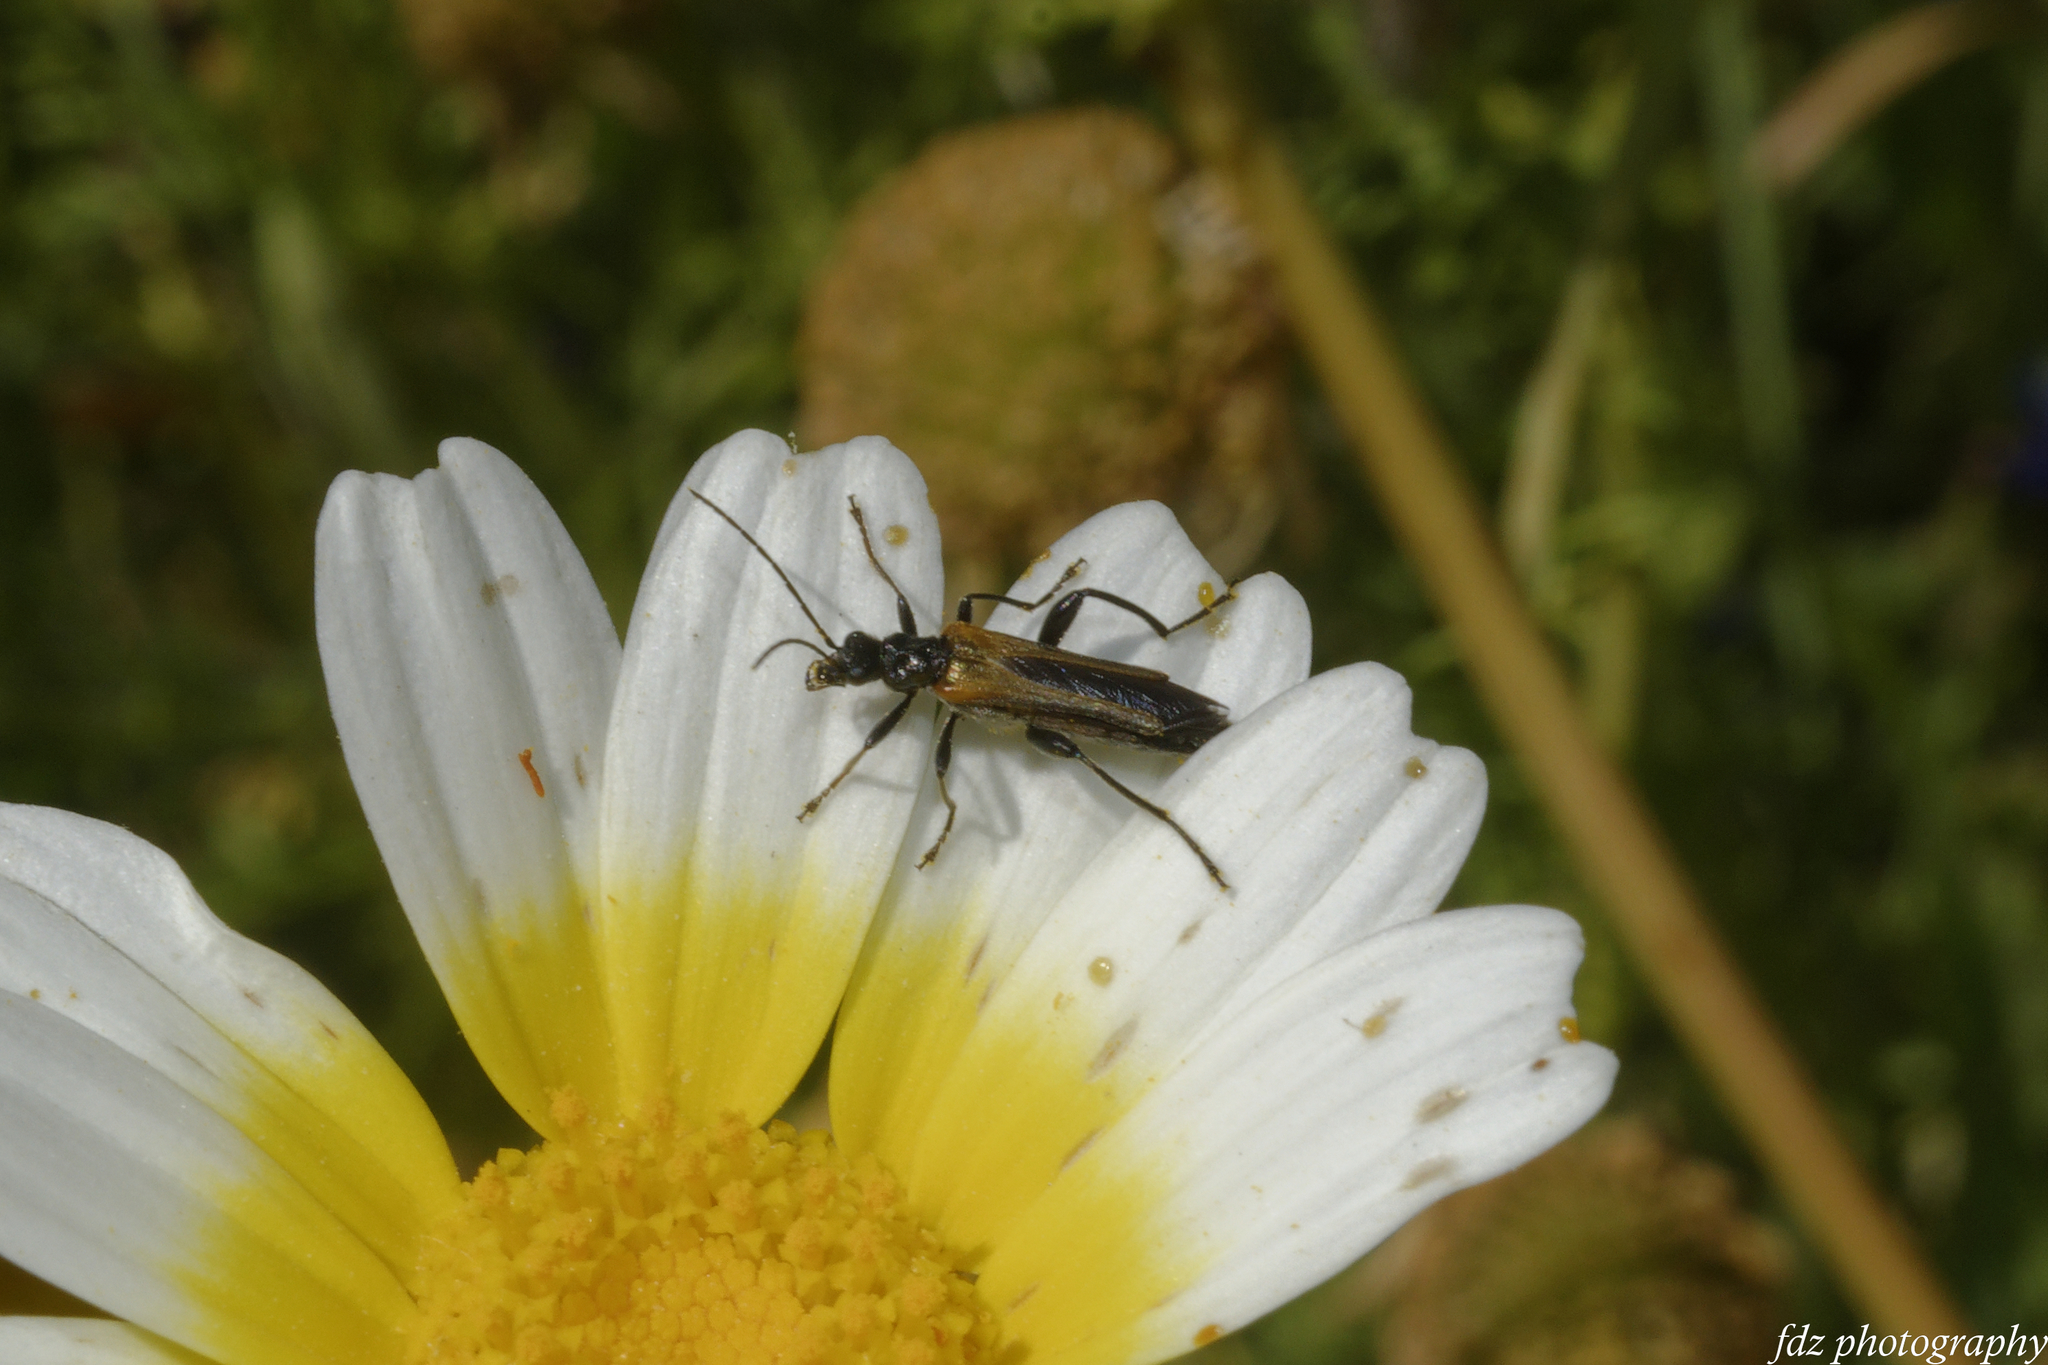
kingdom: Animalia
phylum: Arthropoda
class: Insecta
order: Coleoptera
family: Oedemeridae
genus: Oedemera
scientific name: Oedemera simplex
